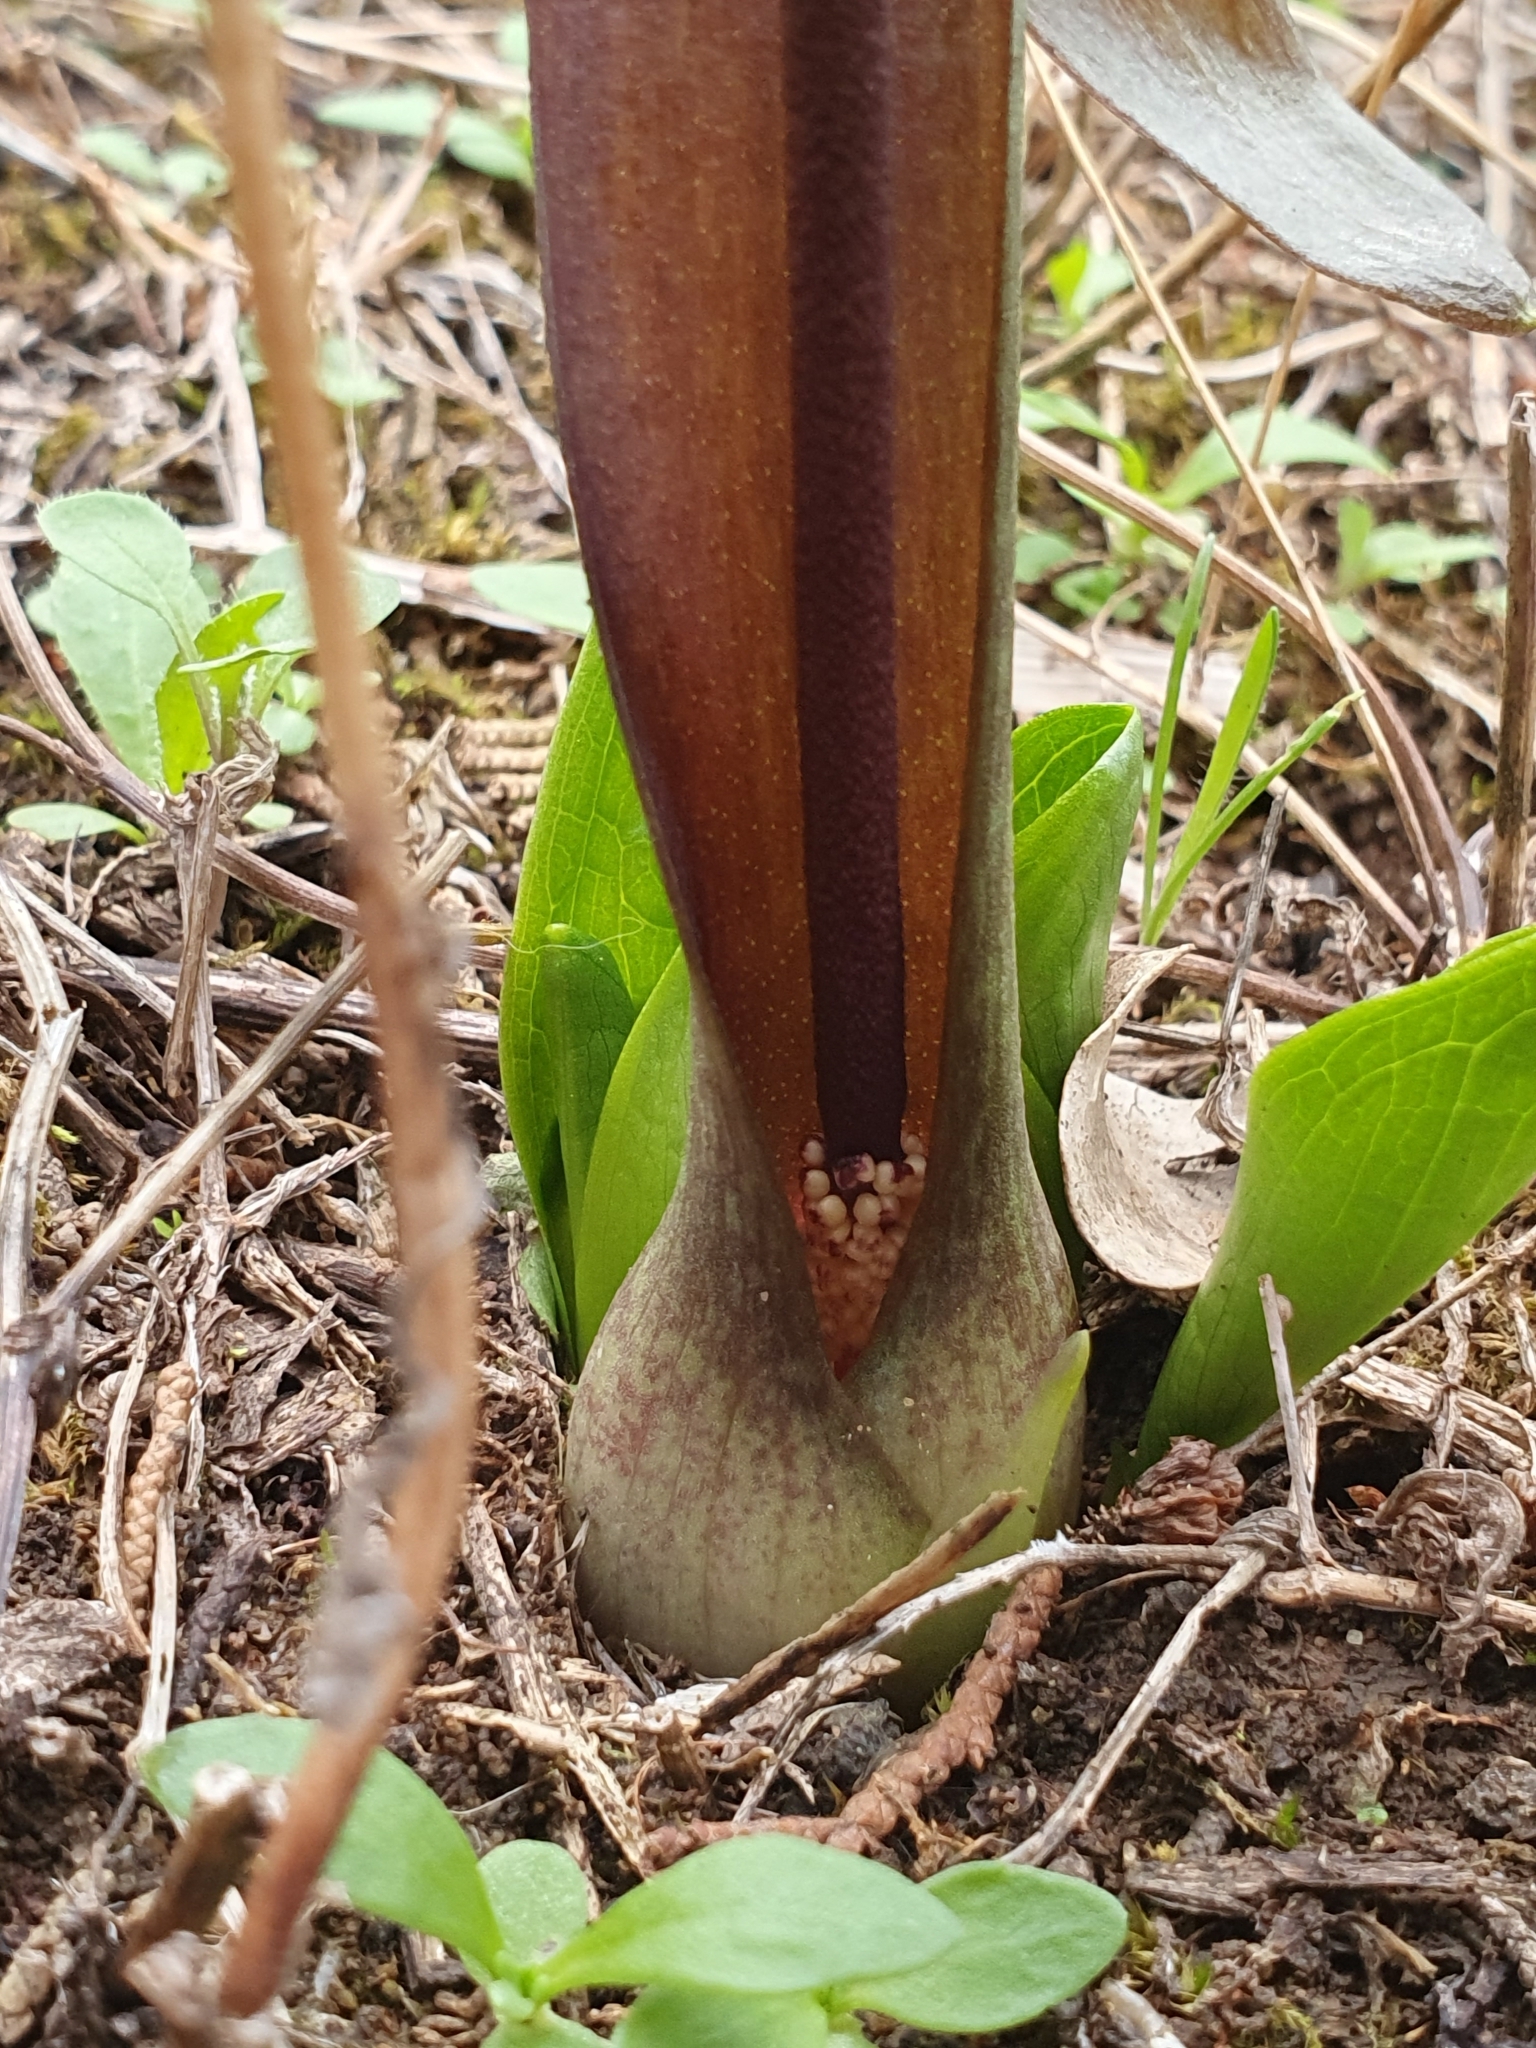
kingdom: Plantae
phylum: Tracheophyta
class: Liliopsida
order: Alismatales
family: Araceae
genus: Biarum
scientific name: Biarum dispar
